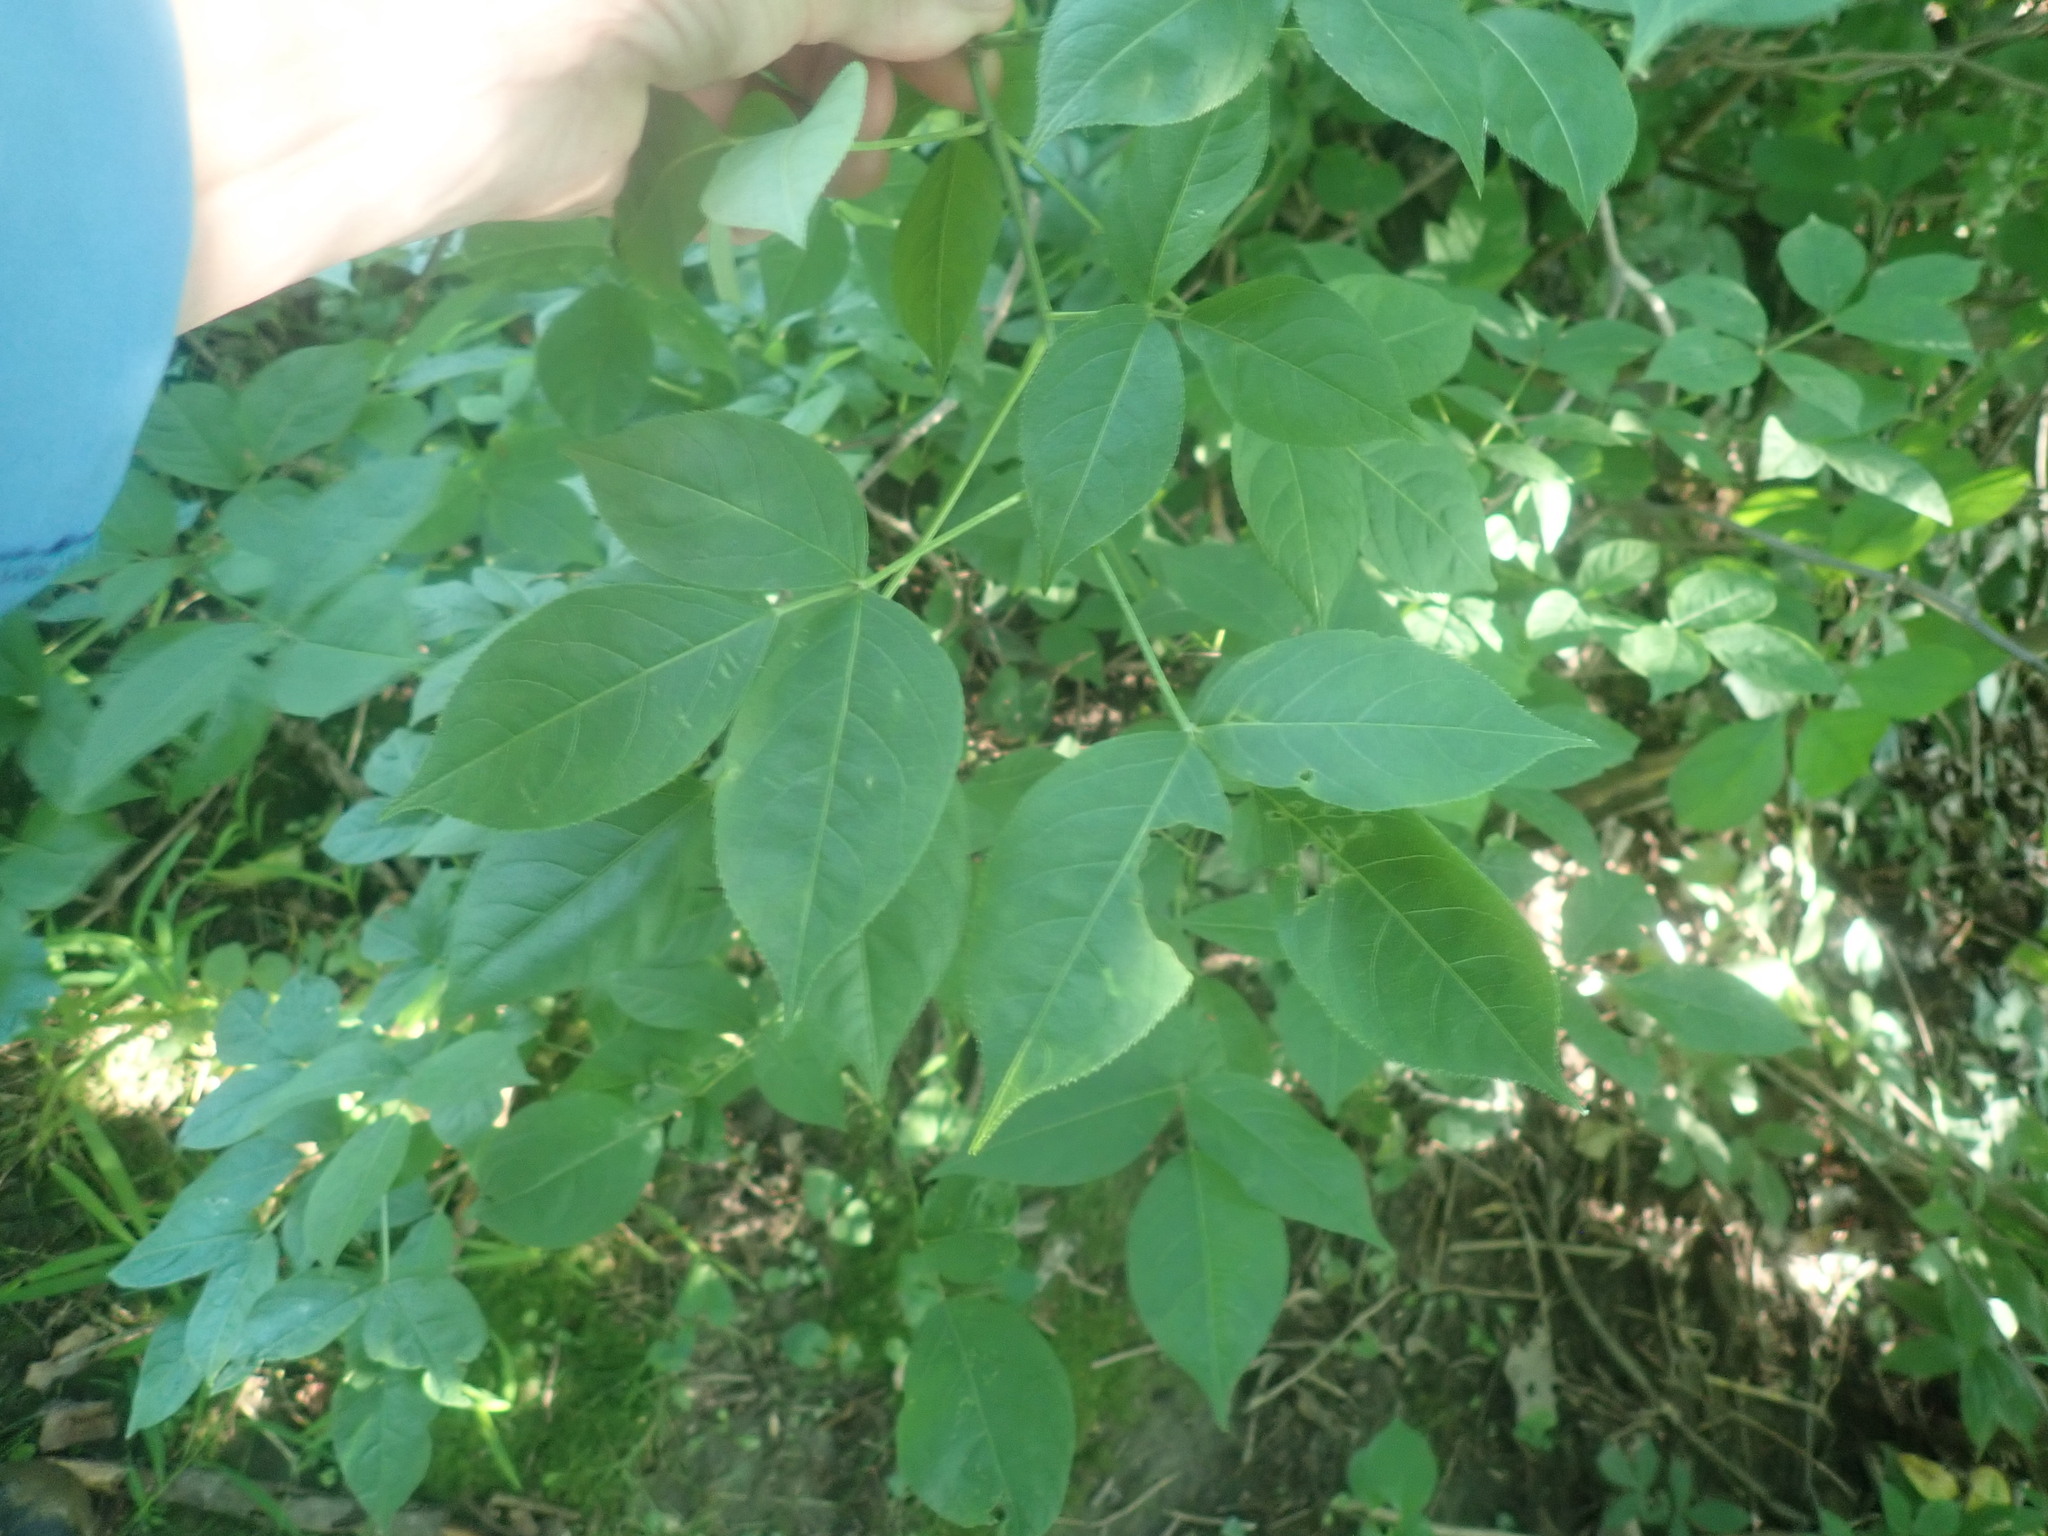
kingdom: Plantae
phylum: Tracheophyta
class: Magnoliopsida
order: Crossosomatales
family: Staphyleaceae
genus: Staphylea
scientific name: Staphylea trifolia
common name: American bladdernut
